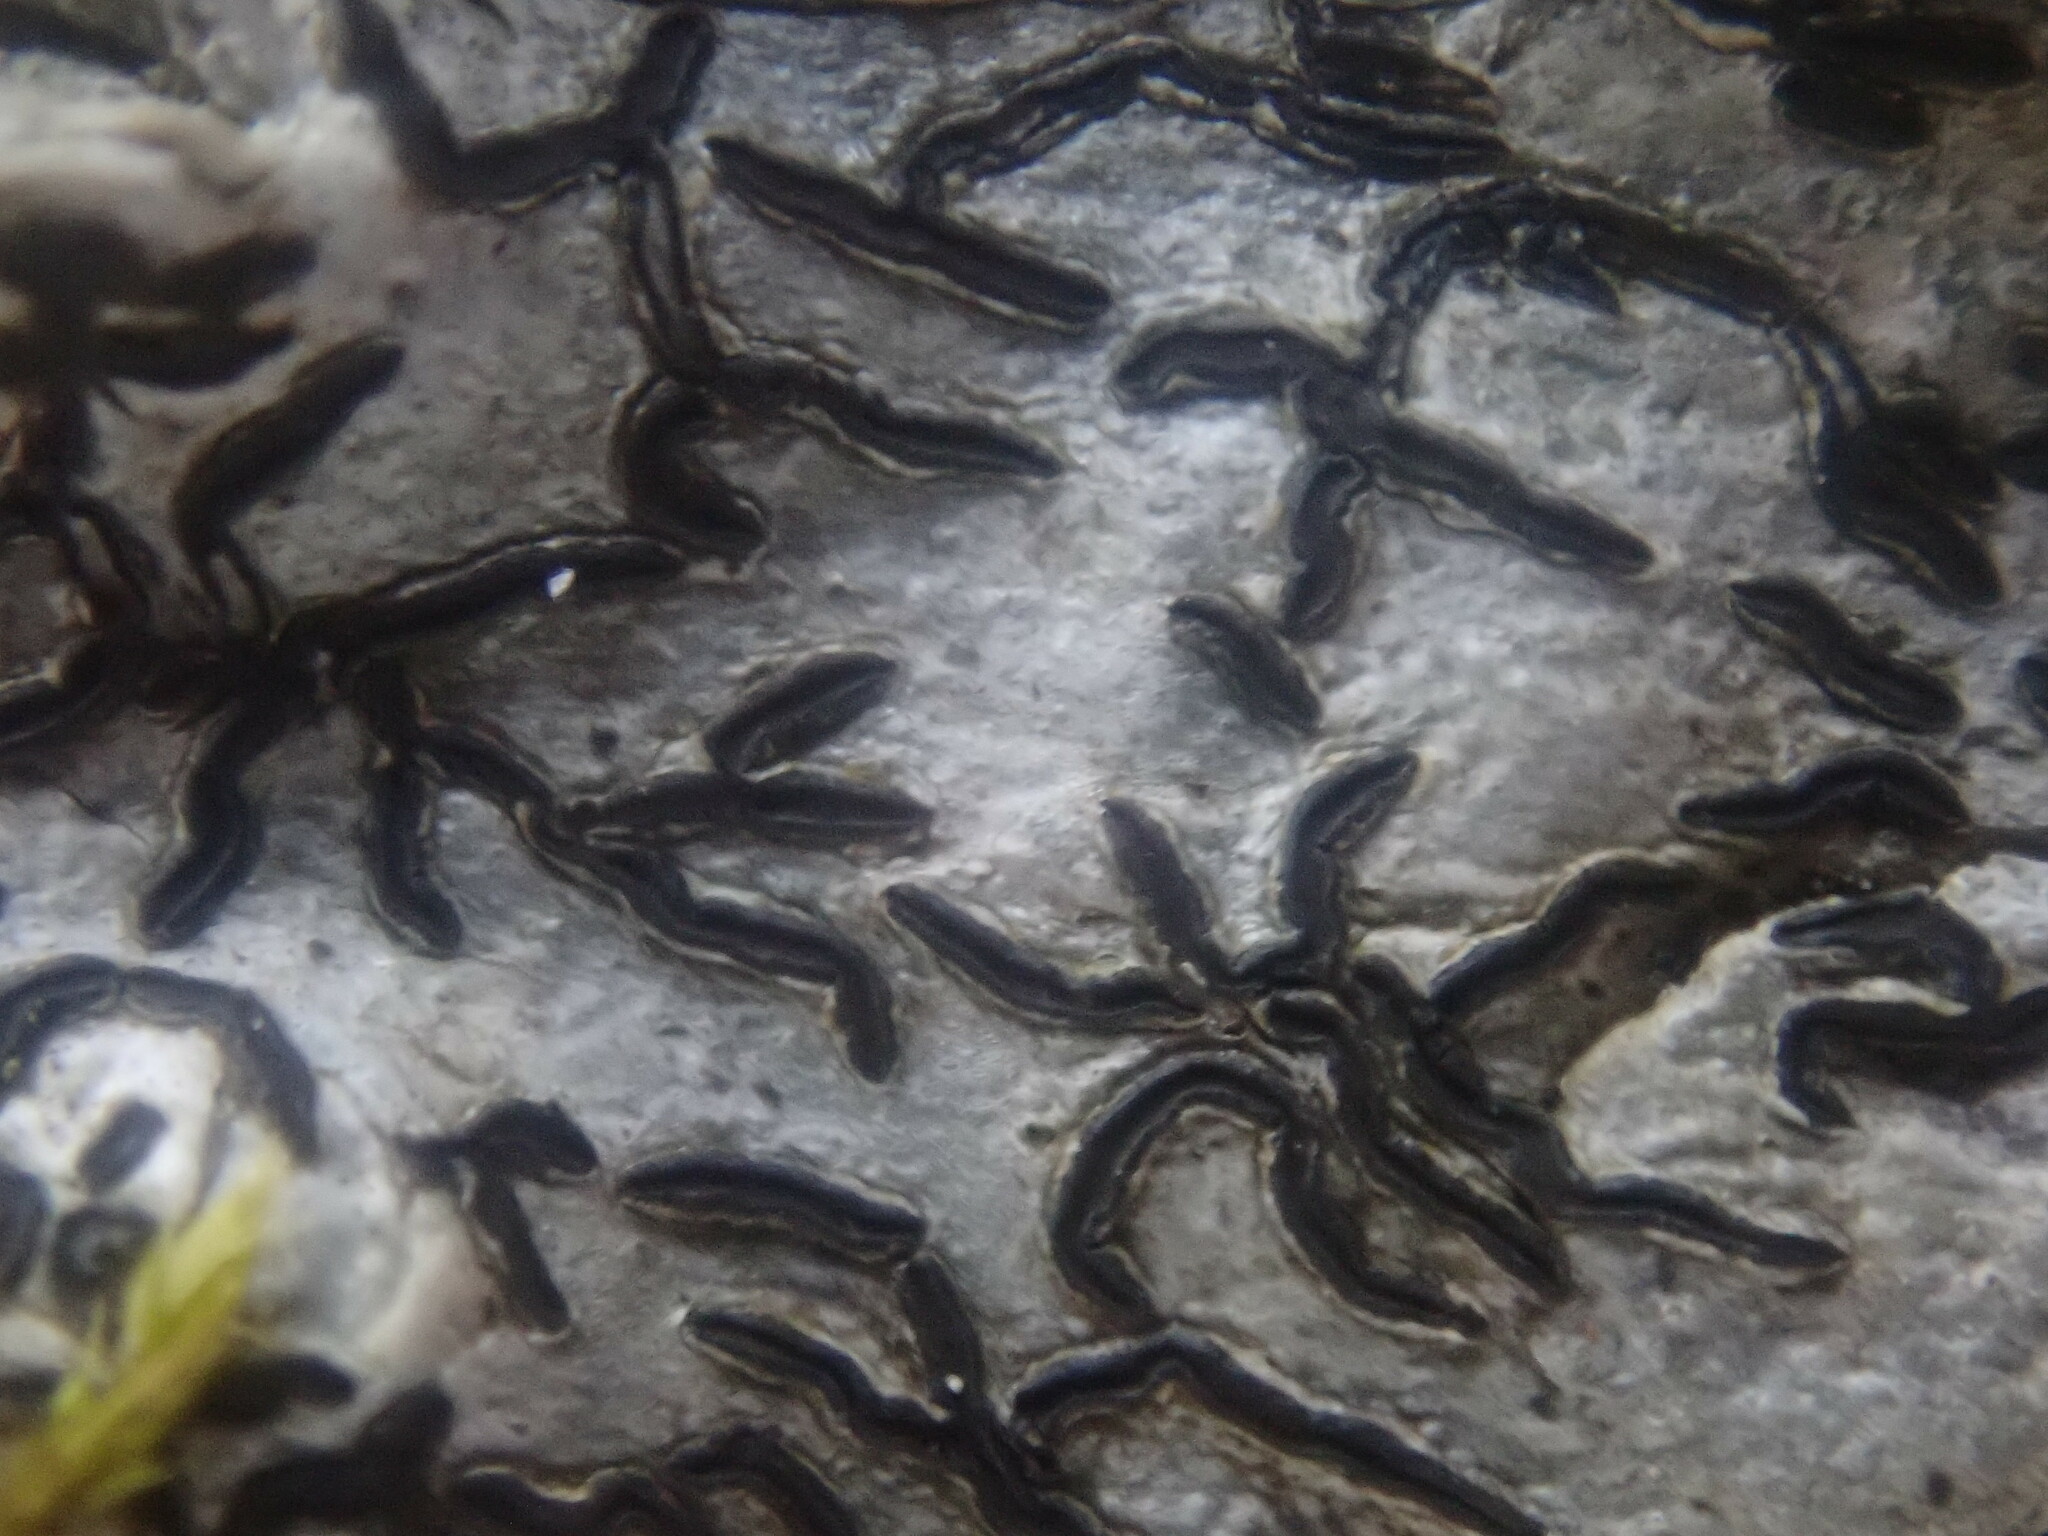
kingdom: Fungi
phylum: Ascomycota
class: Lecanoromycetes
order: Ostropales
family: Graphidaceae
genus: Graphis
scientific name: Graphis scripta
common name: Script lichen
